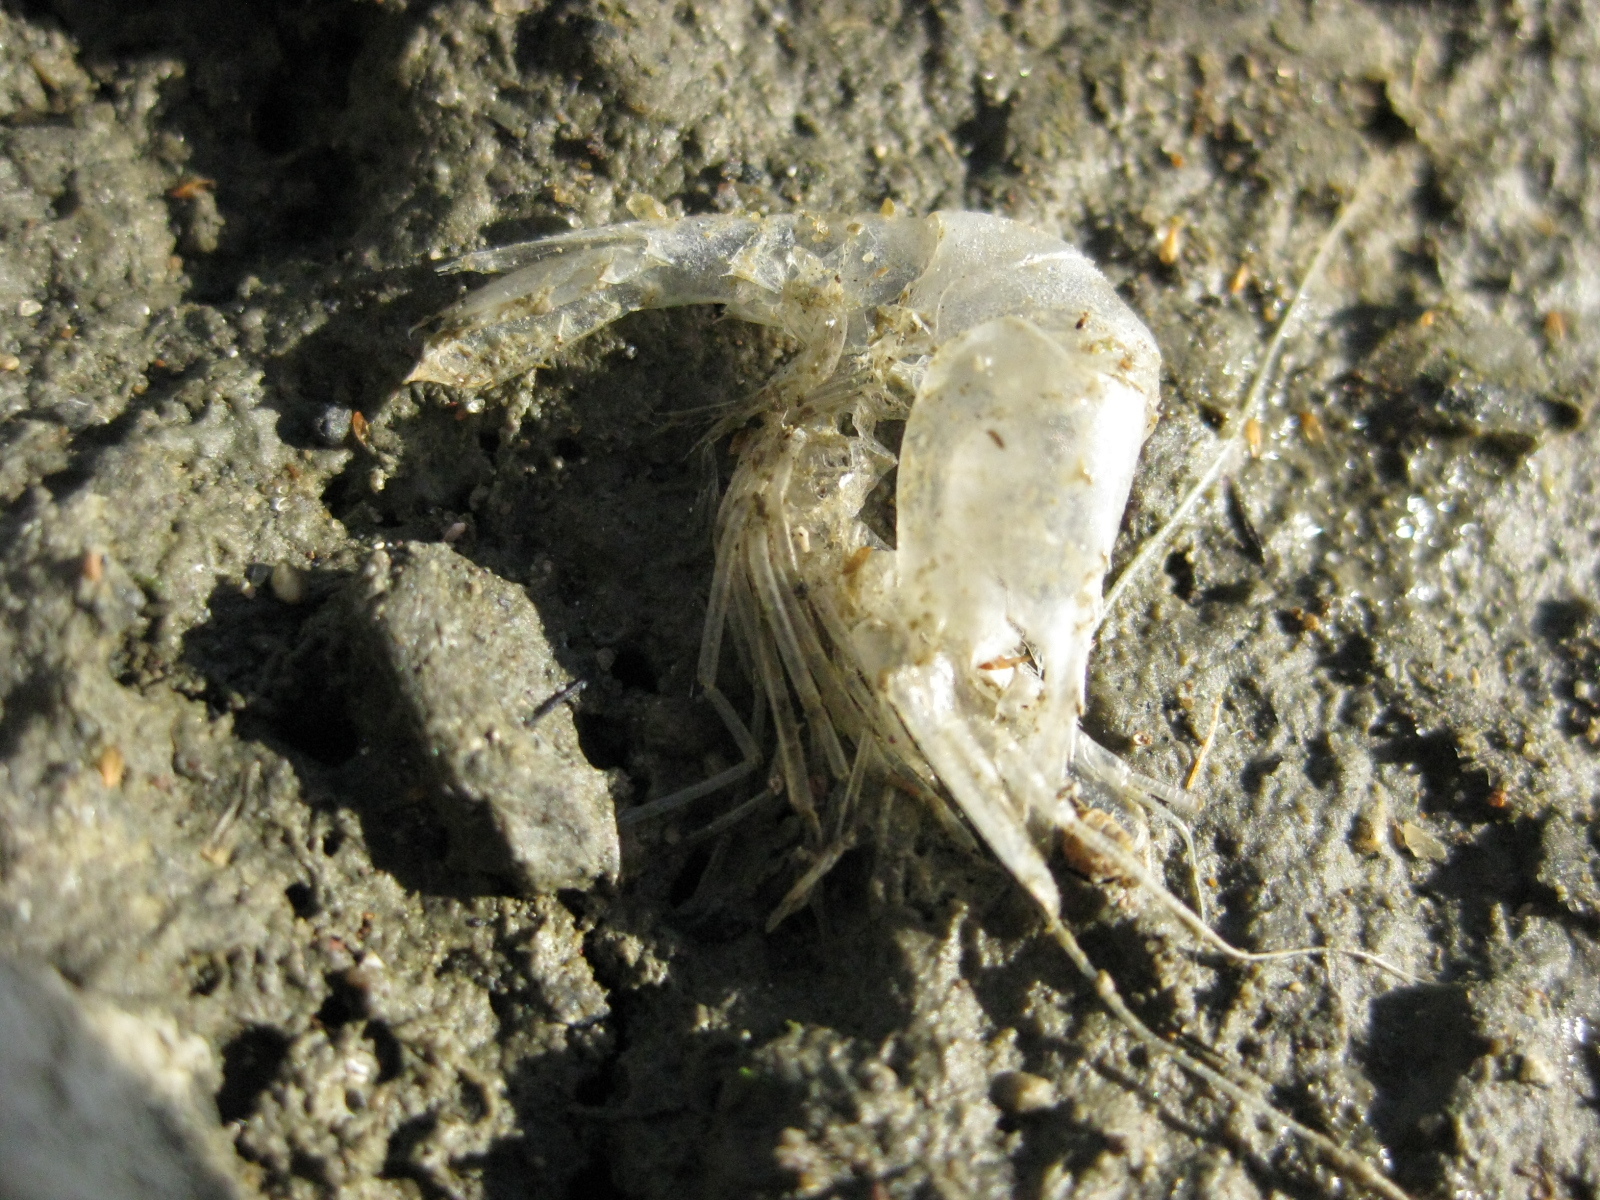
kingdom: Animalia
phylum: Arthropoda
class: Malacostraca
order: Decapoda
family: Palaemonidae
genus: Palaemon
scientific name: Palaemon affinis
